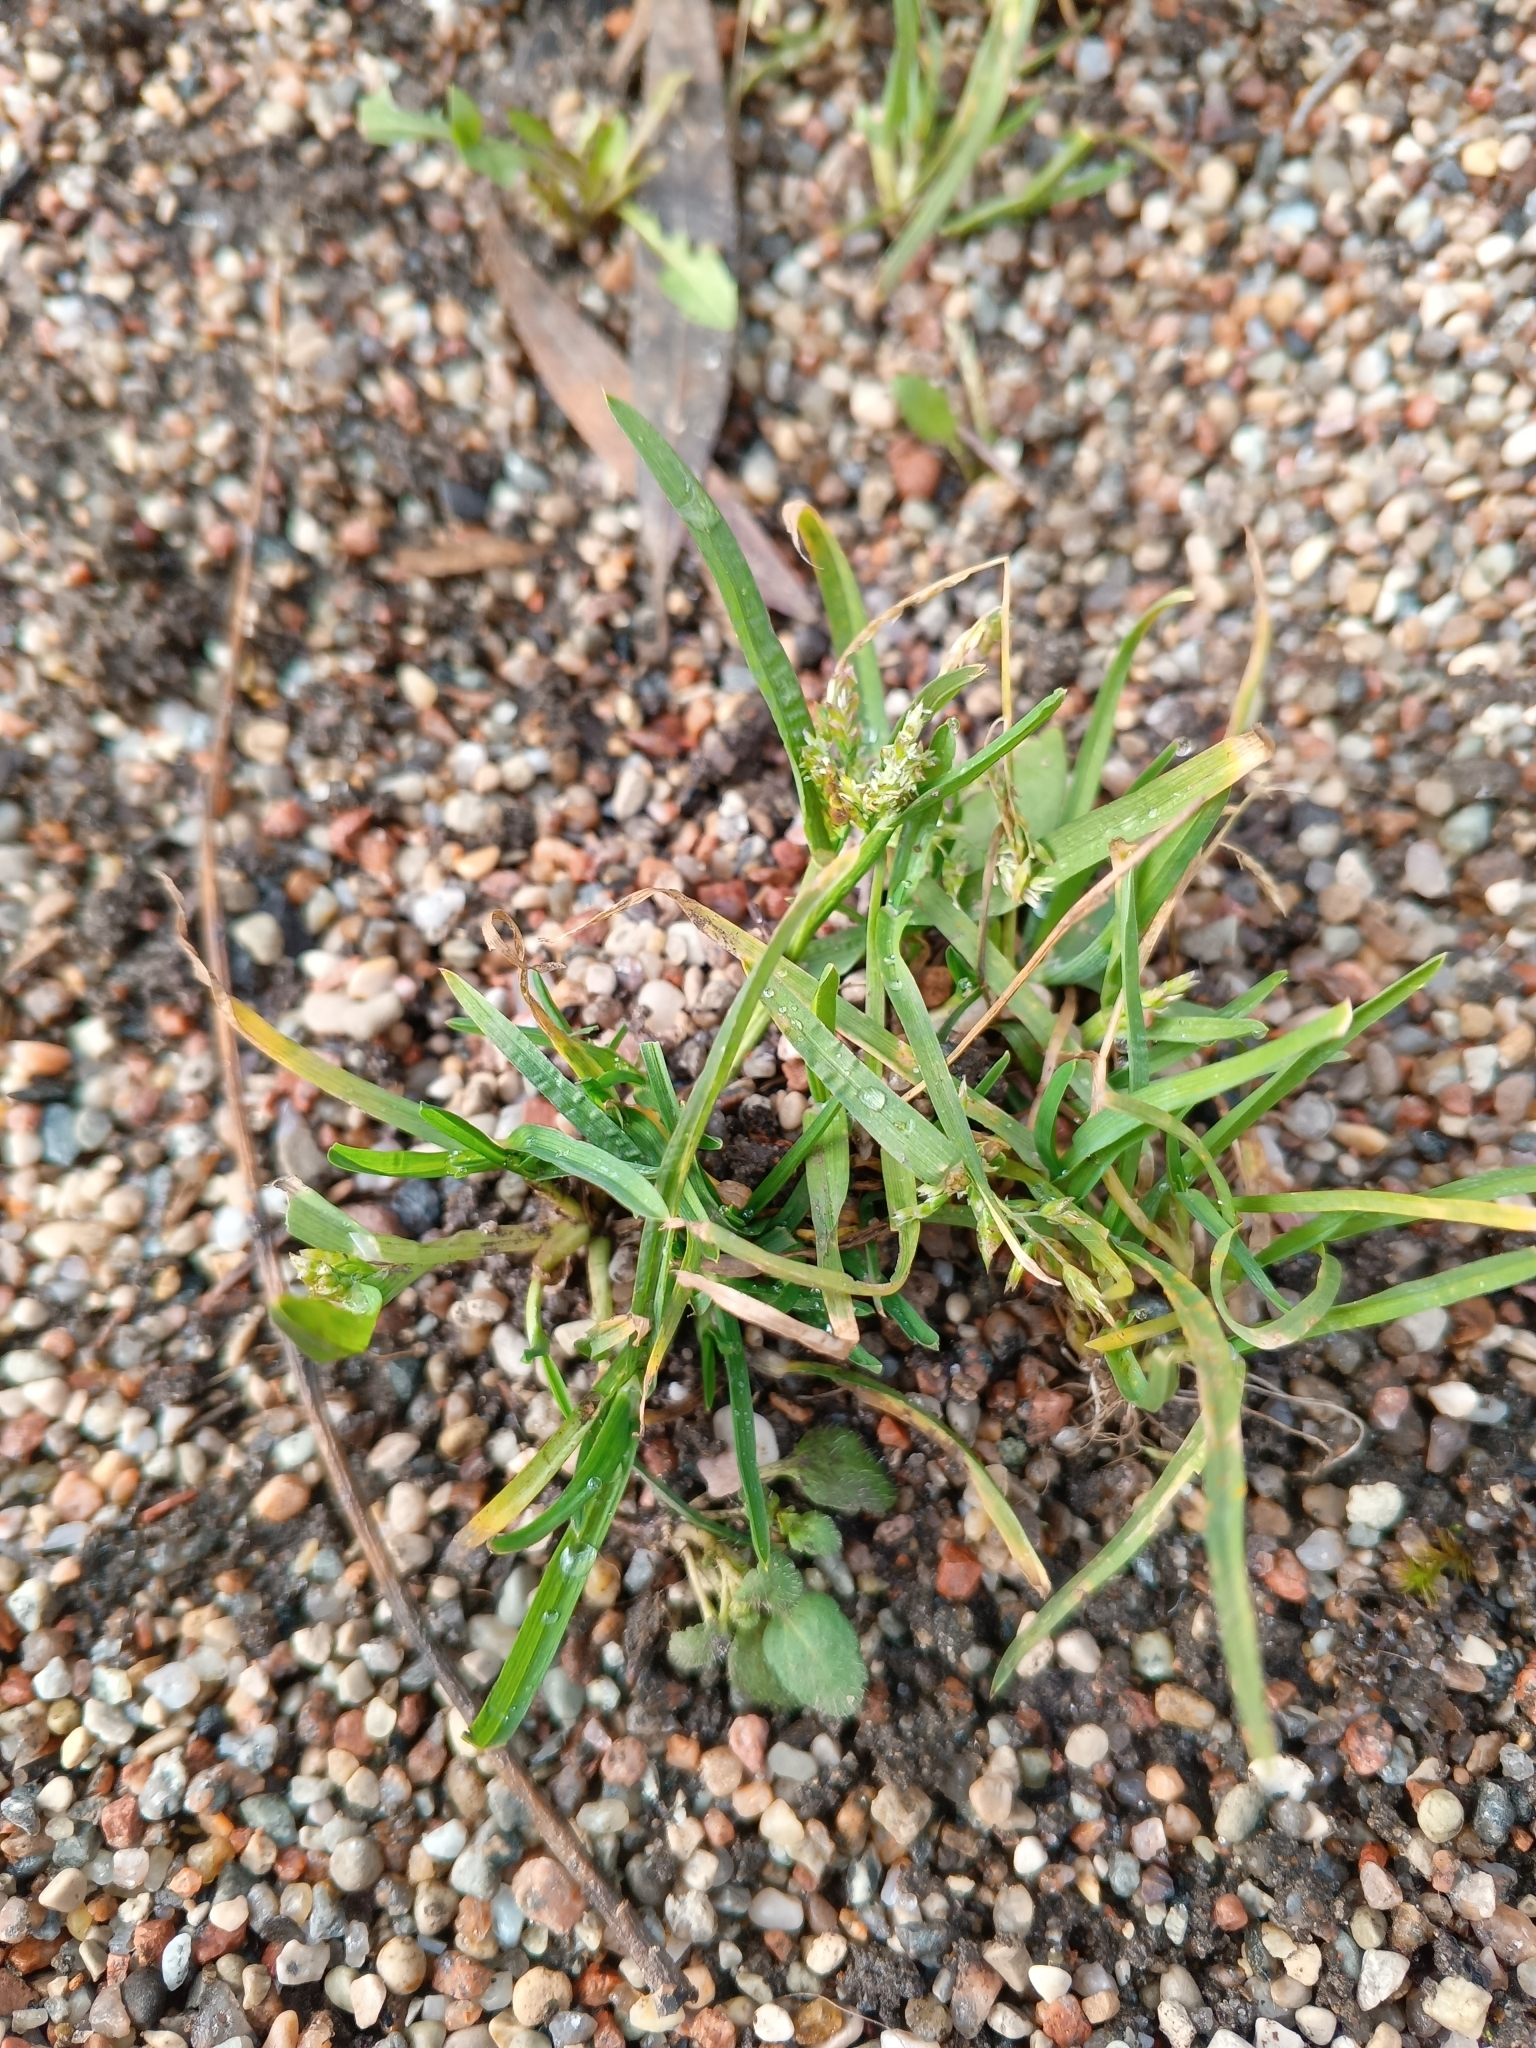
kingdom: Plantae
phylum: Tracheophyta
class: Liliopsida
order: Poales
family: Poaceae
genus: Poa
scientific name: Poa annua
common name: Annual bluegrass
